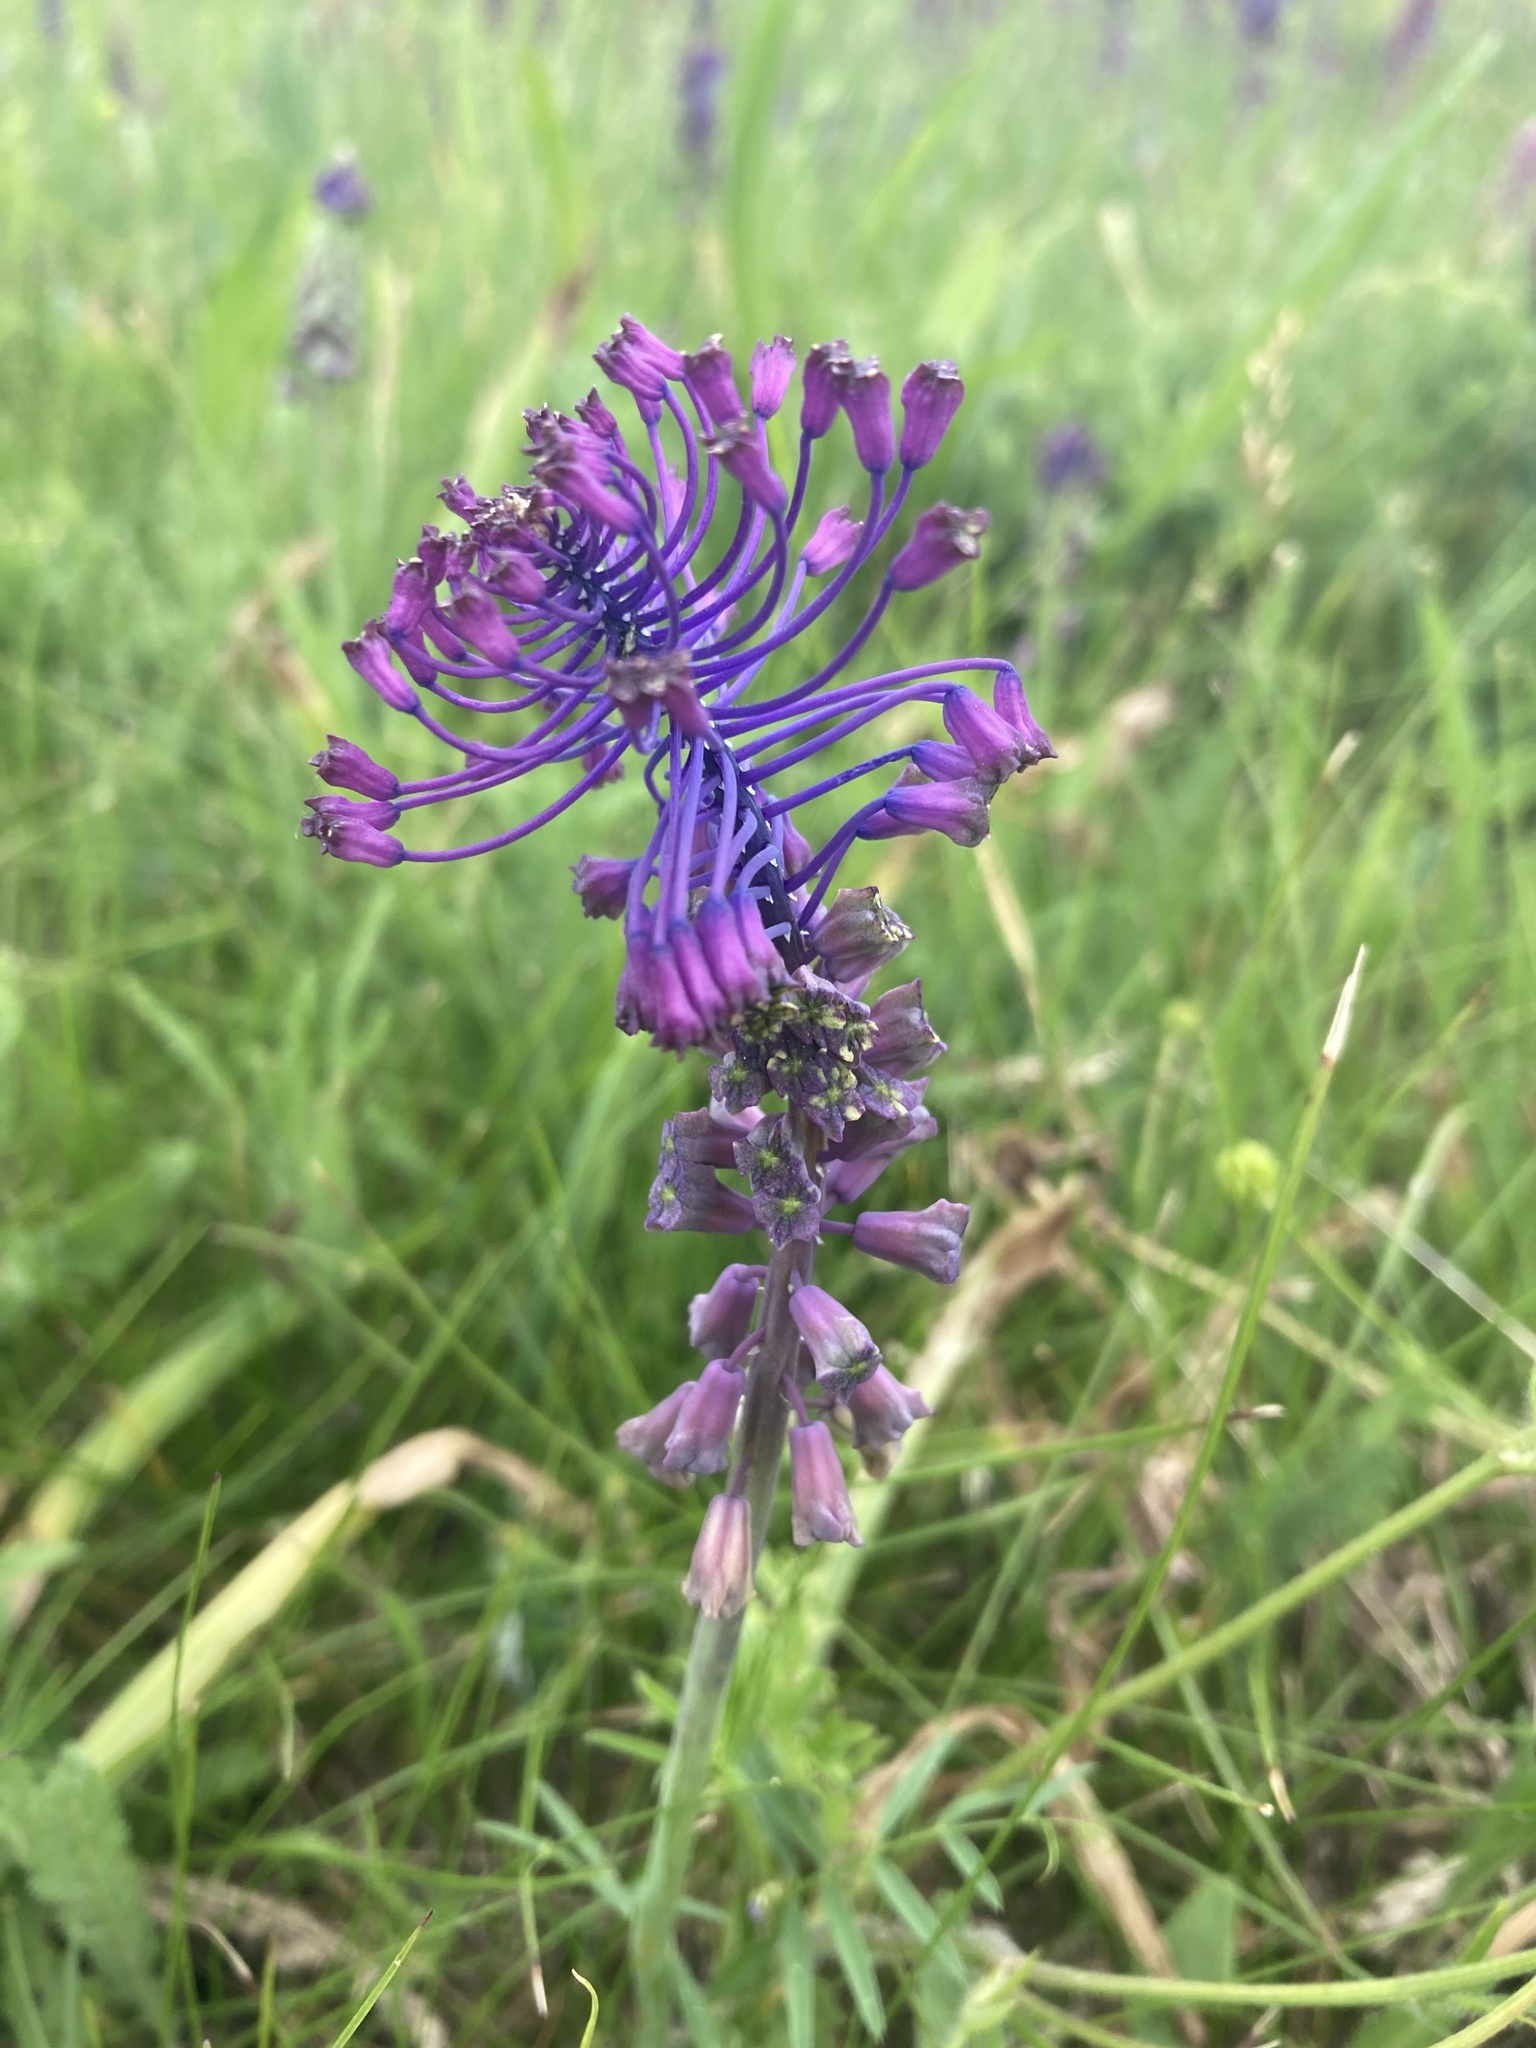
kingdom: Plantae
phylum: Tracheophyta
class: Liliopsida
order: Asparagales
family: Asparagaceae
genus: Muscari
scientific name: Muscari comosum
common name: Tassel hyacinth
